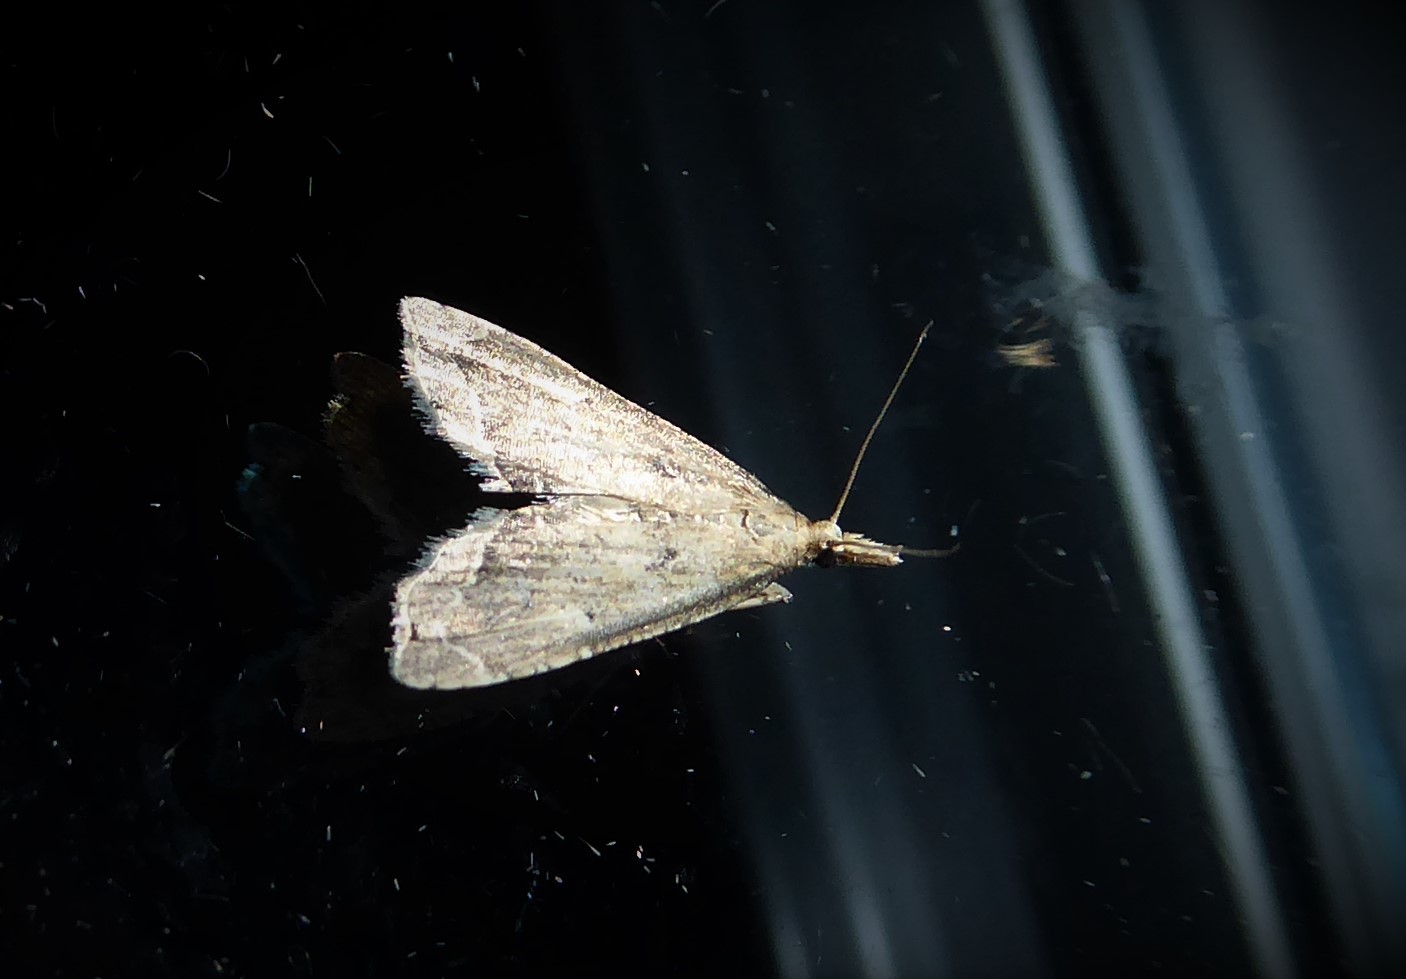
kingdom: Animalia
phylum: Arthropoda
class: Insecta
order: Lepidoptera
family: Crambidae
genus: Diplopseustis
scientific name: Diplopseustis perieresalis
